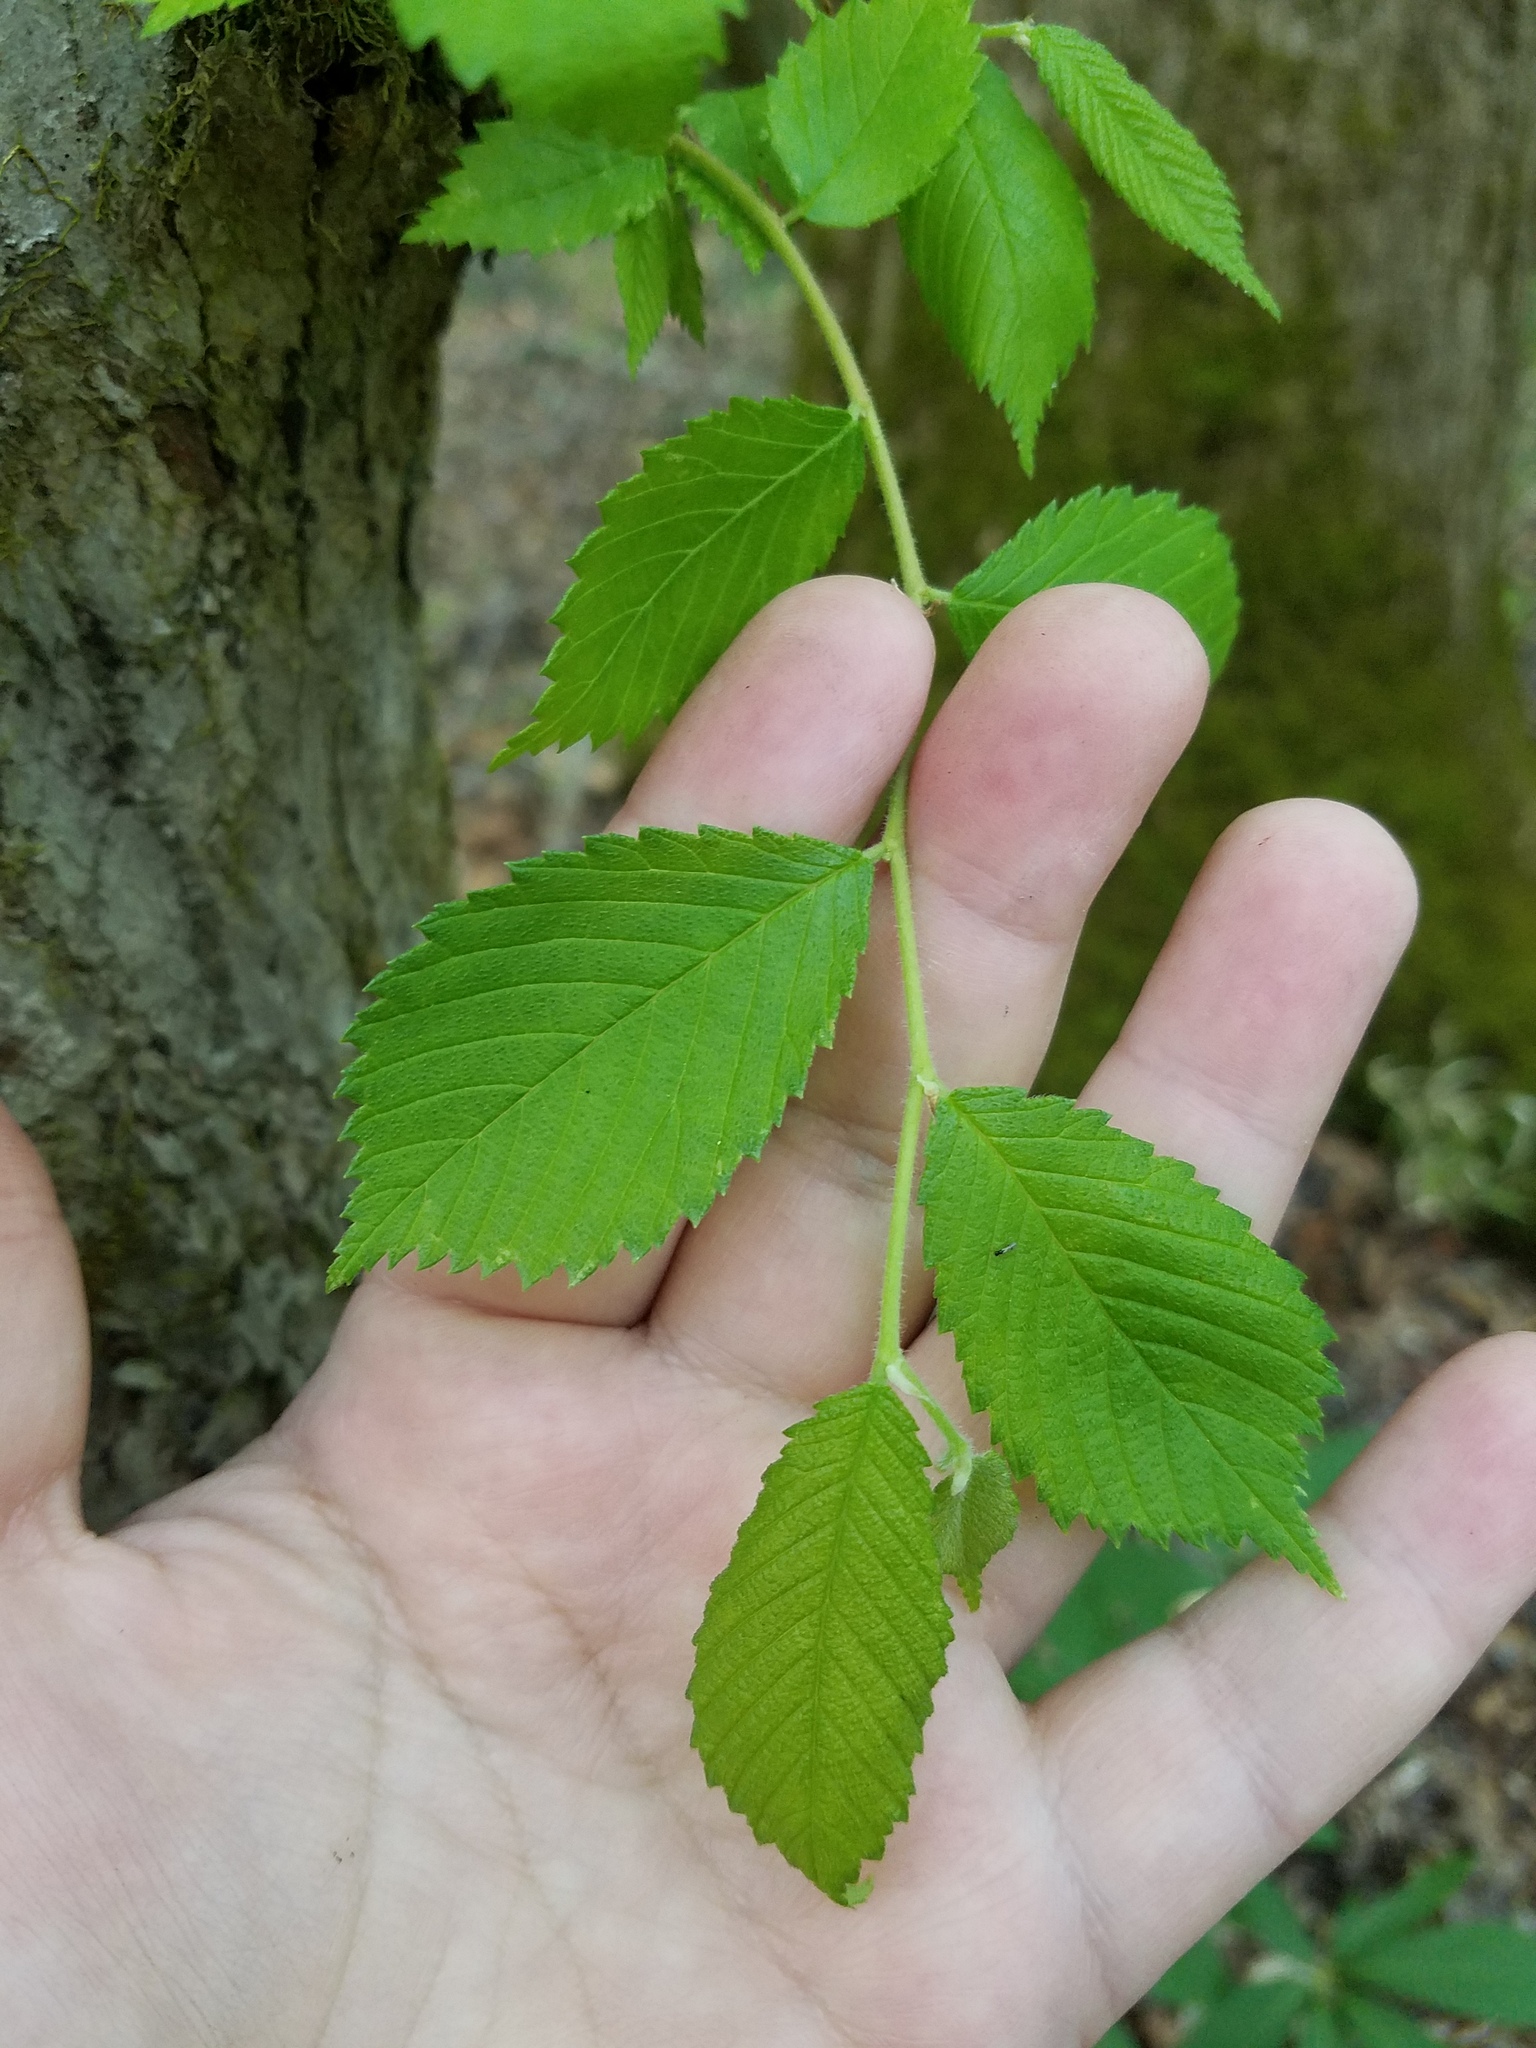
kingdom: Plantae
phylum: Tracheophyta
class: Magnoliopsida
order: Rosales
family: Ulmaceae
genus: Ulmus
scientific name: Ulmus alata
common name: Winged elm
